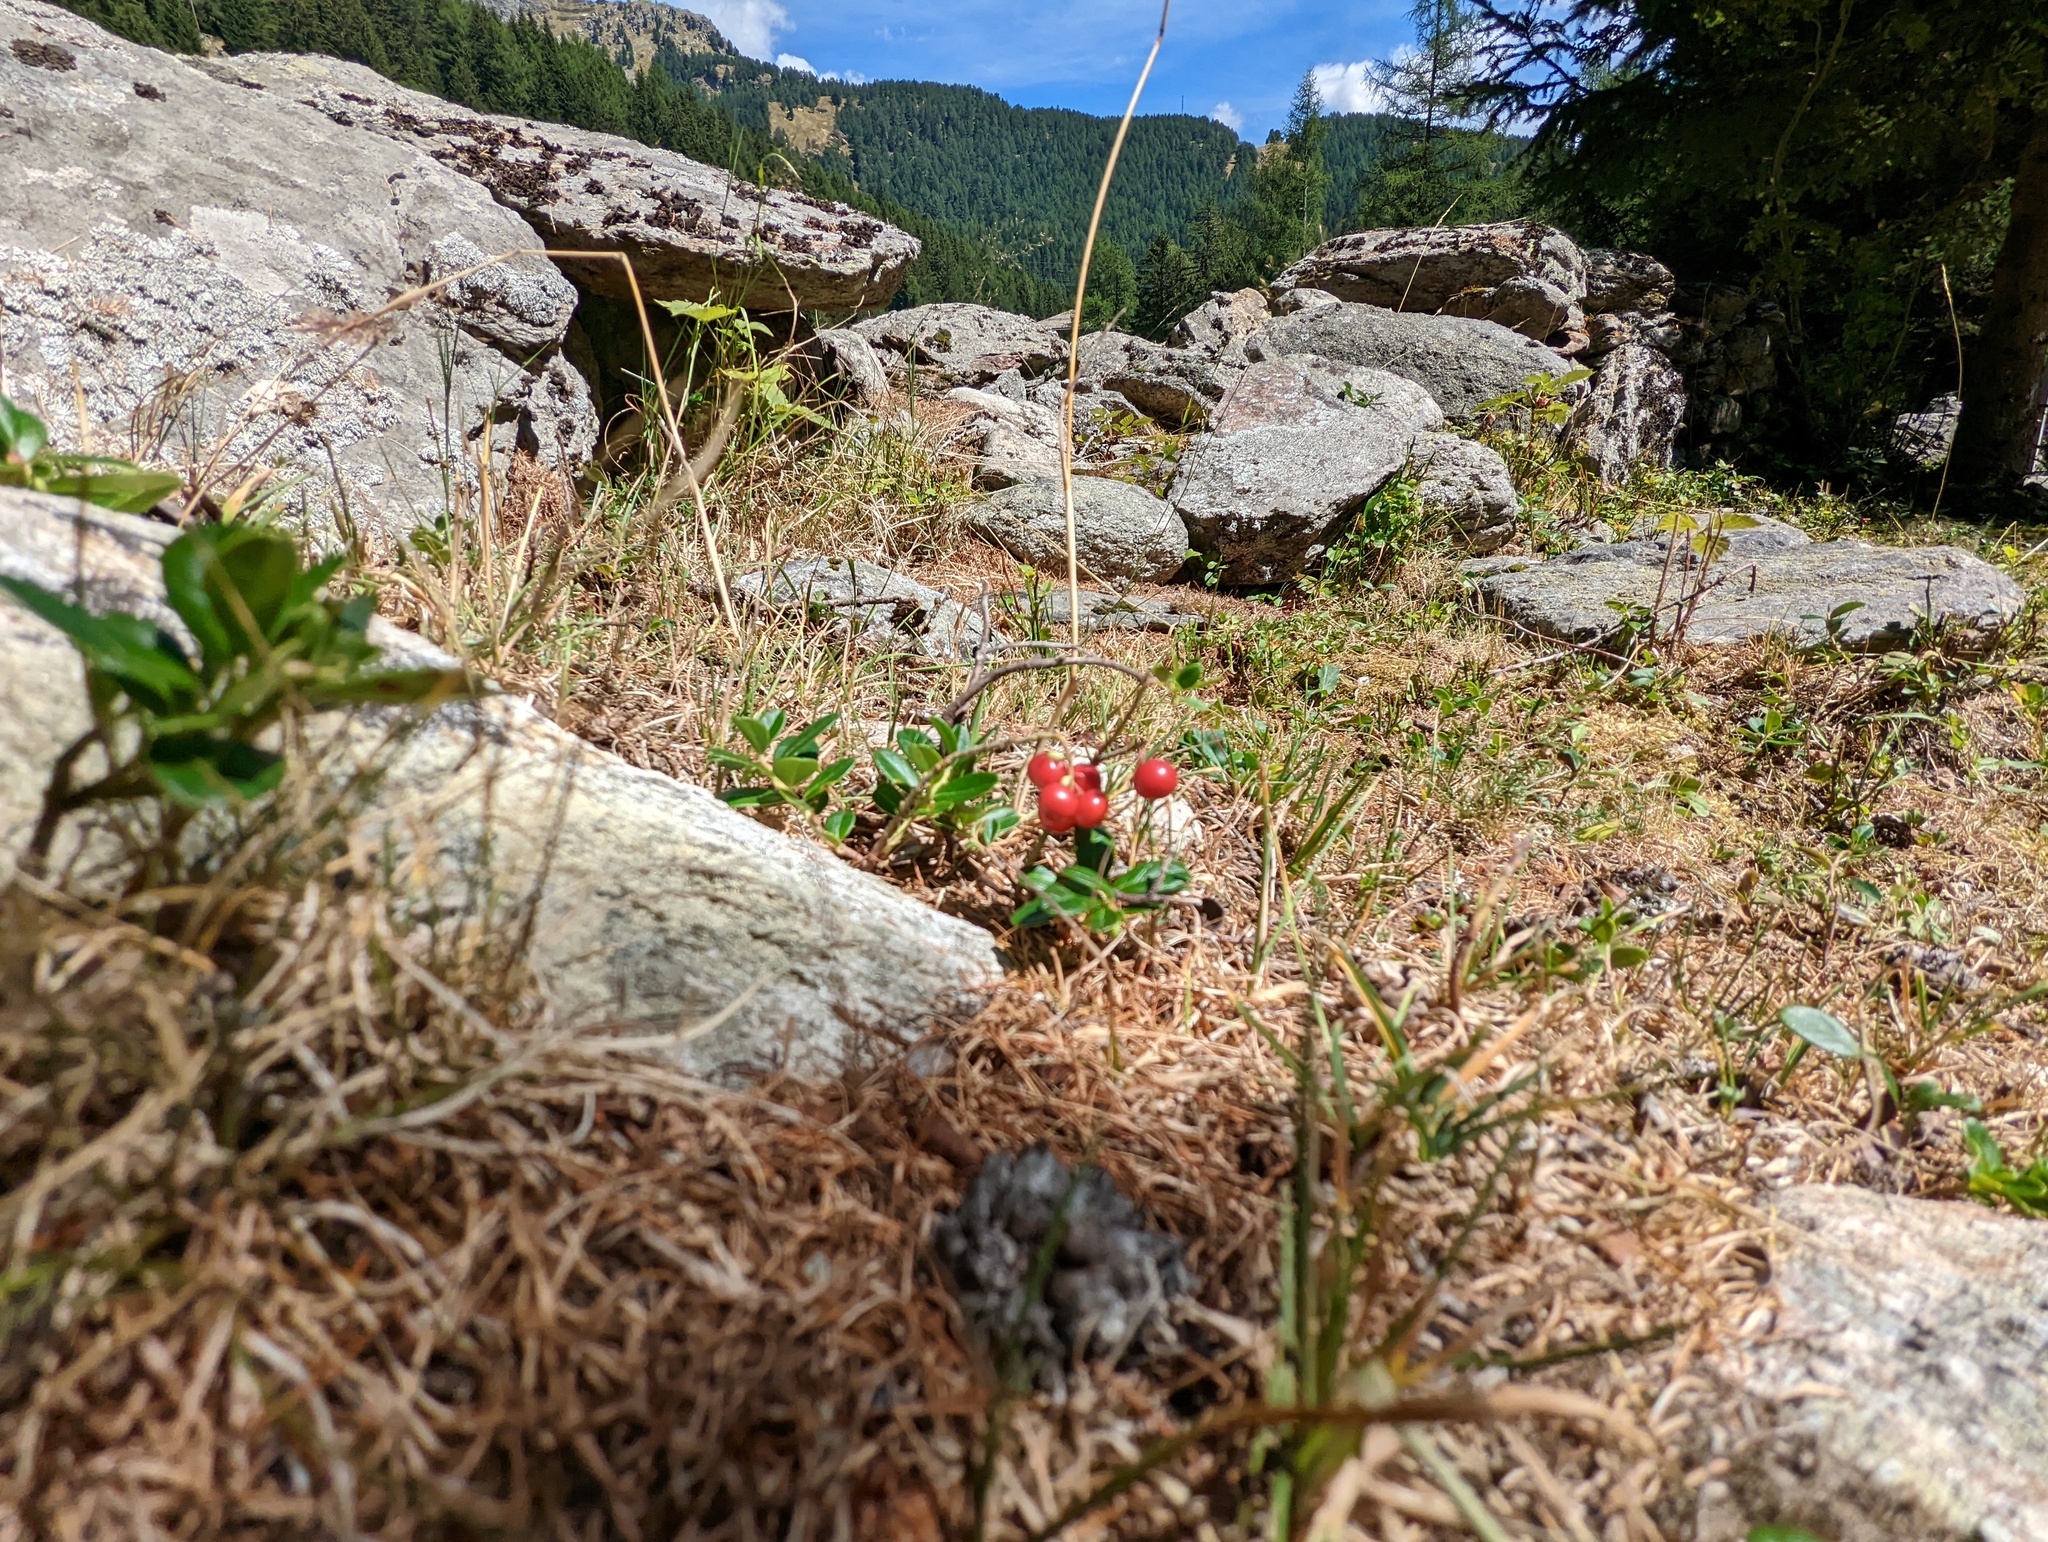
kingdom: Plantae
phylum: Tracheophyta
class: Magnoliopsida
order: Ericales
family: Ericaceae
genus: Vaccinium
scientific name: Vaccinium vitis-idaea
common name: Cowberry
